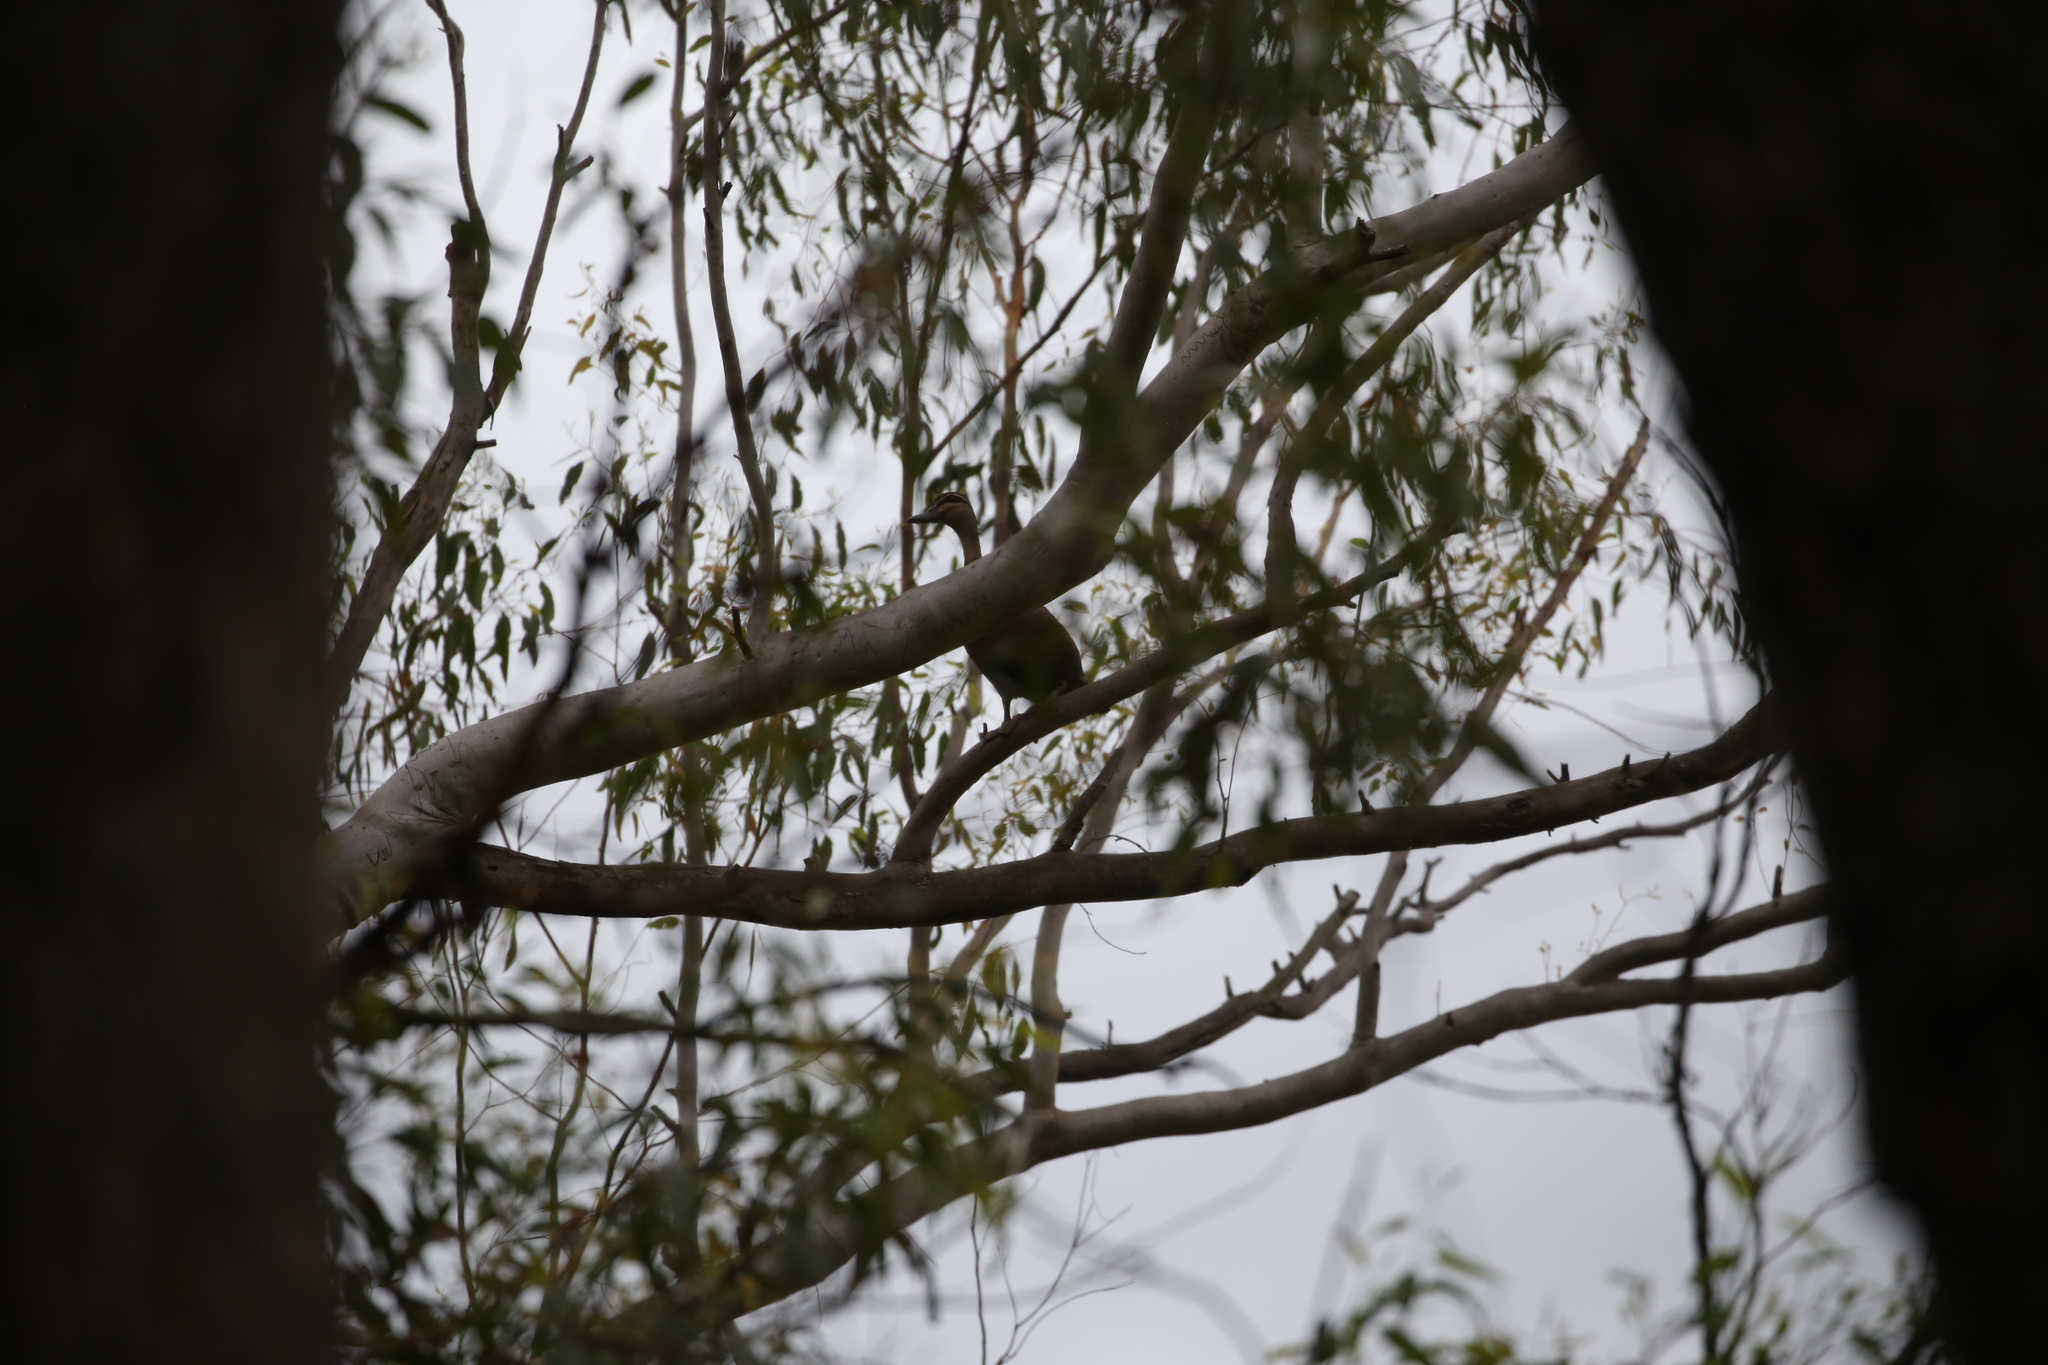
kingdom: Animalia
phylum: Chordata
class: Aves
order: Anseriformes
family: Anatidae
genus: Anas
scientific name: Anas superciliosa
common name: Pacific black duck
